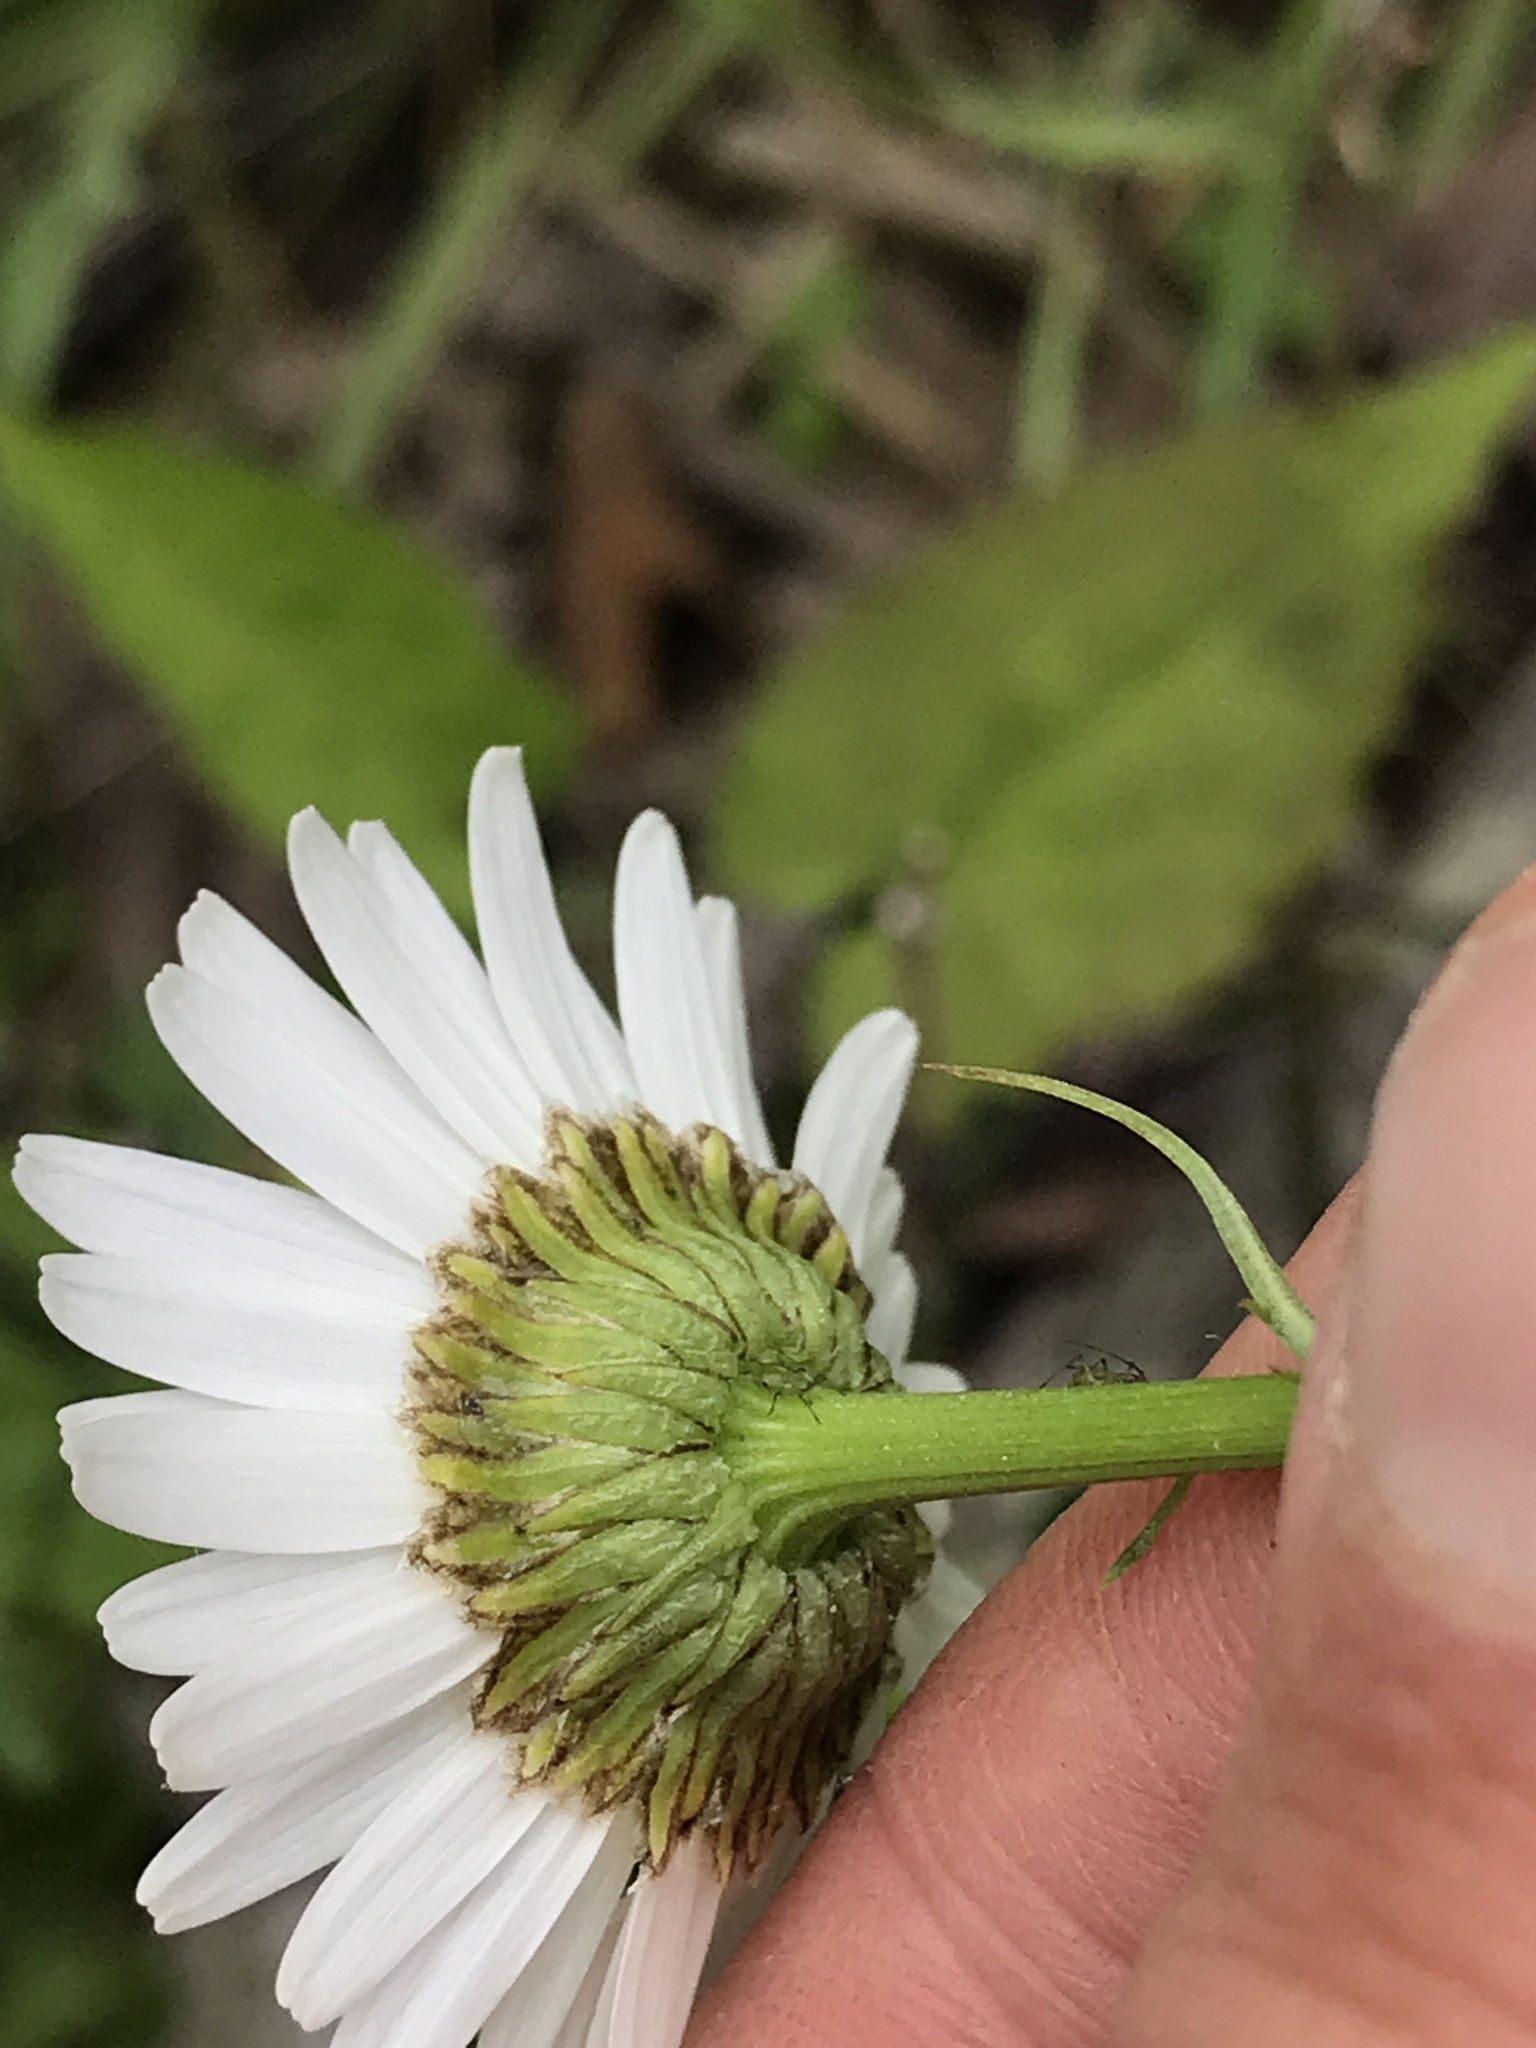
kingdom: Plantae
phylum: Tracheophyta
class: Magnoliopsida
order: Asterales
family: Asteraceae
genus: Leucanthemum
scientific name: Leucanthemum vulgare
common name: Oxeye daisy
